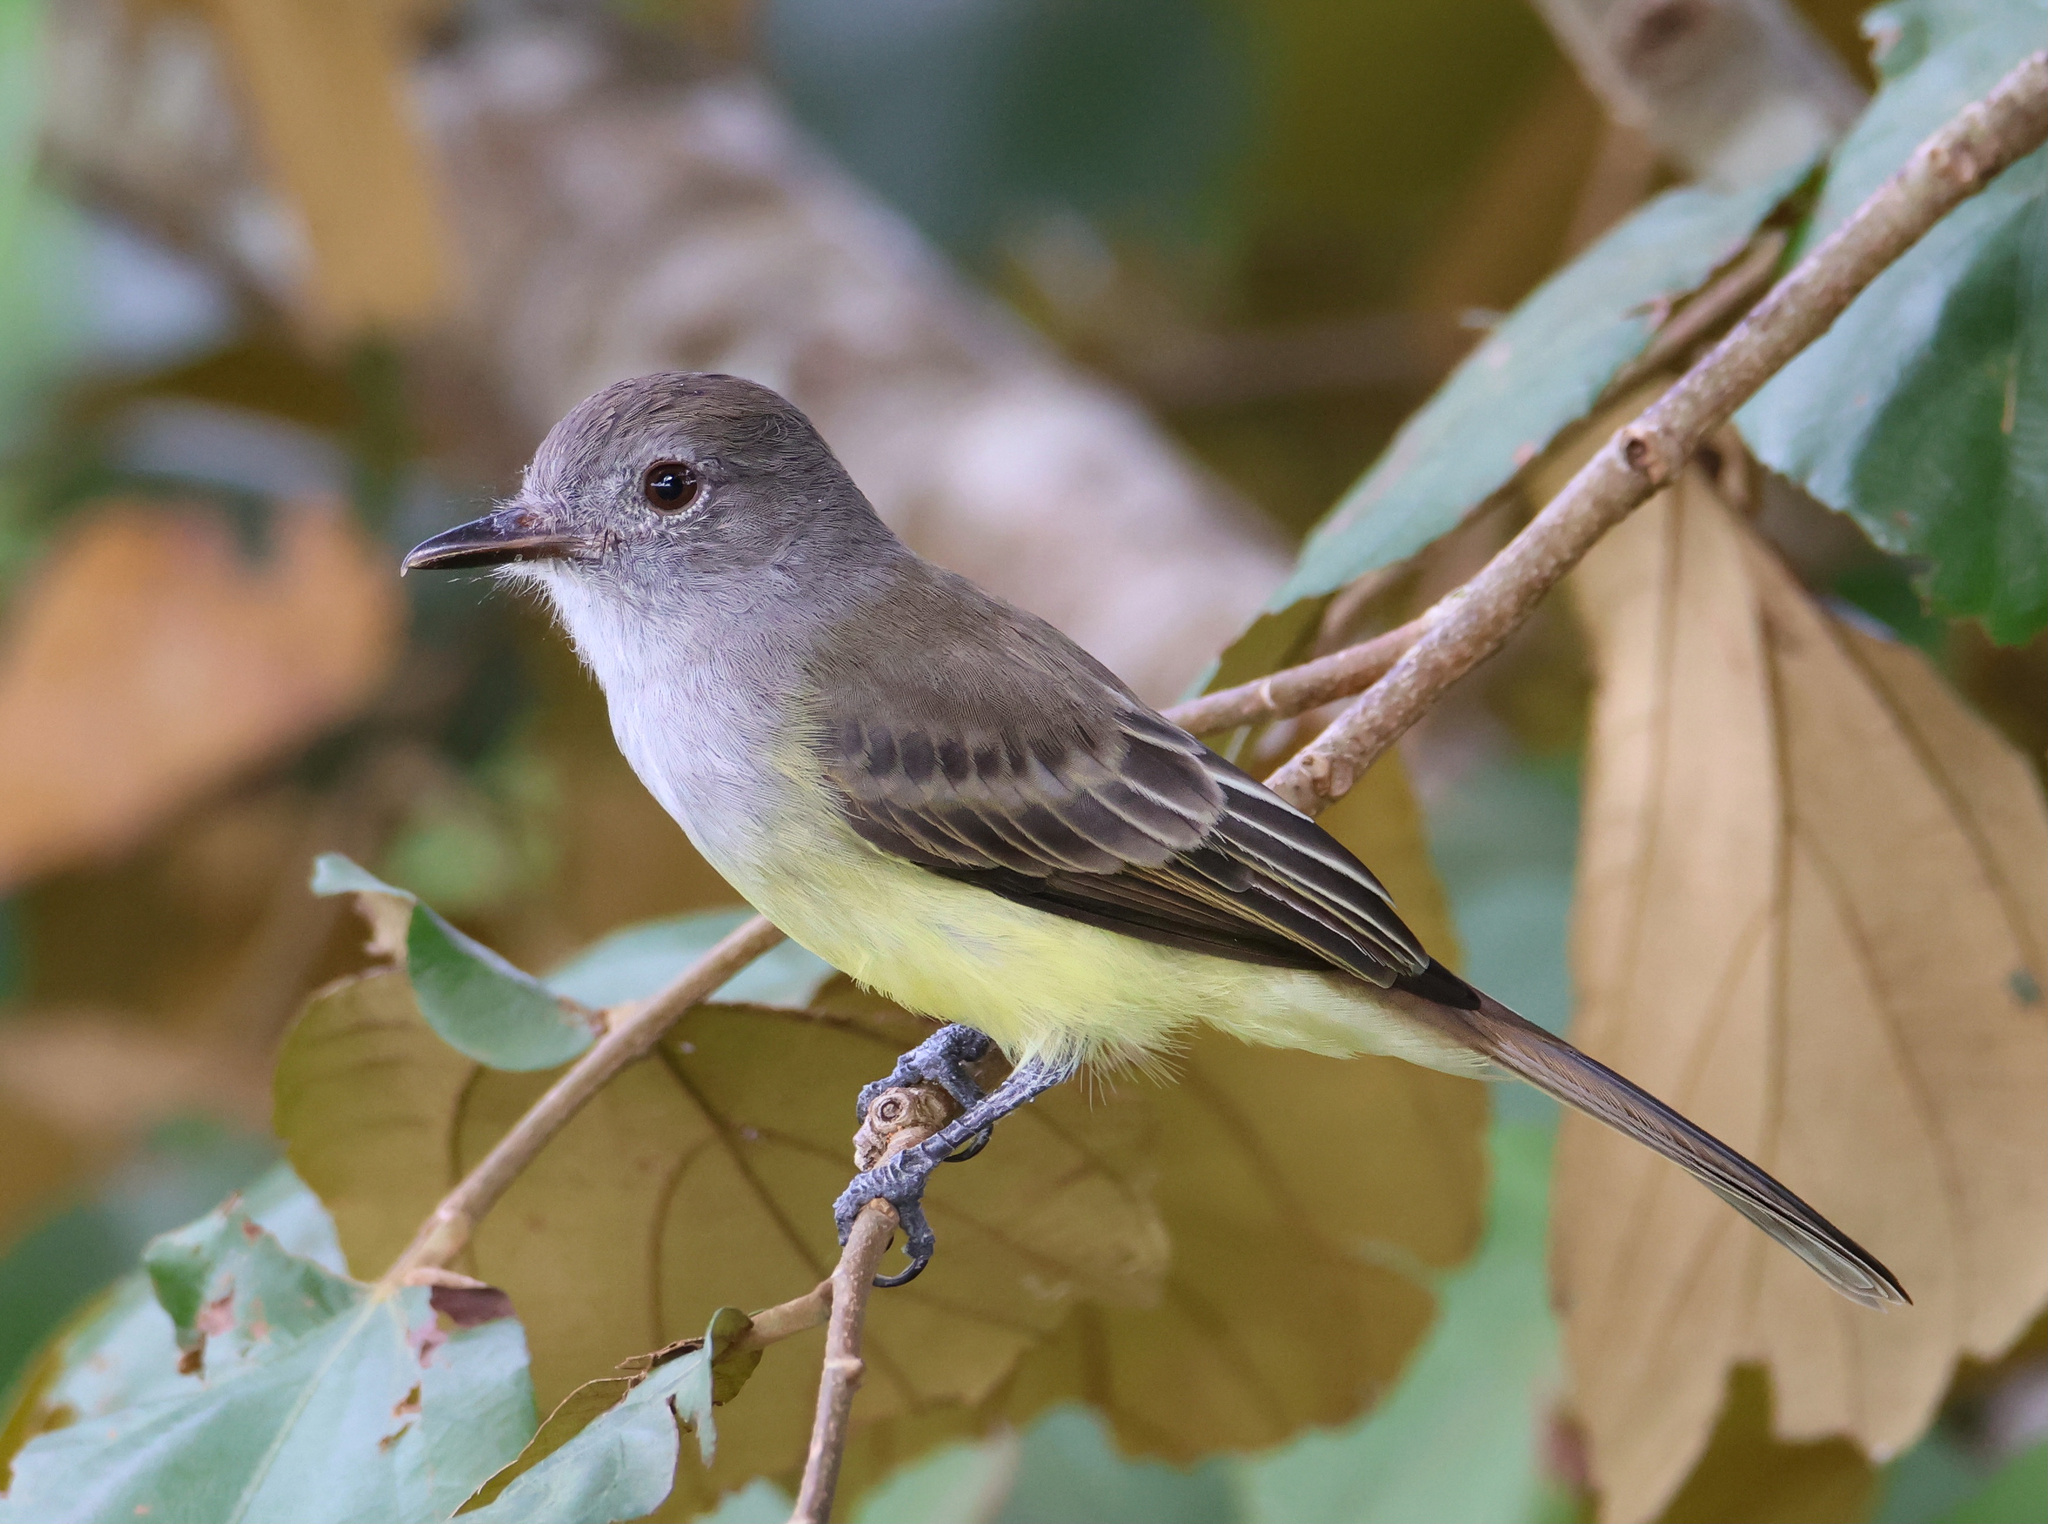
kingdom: Animalia
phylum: Chordata
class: Aves
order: Passeriformes
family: Tyrannidae
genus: Myiarchus
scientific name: Myiarchus panamensis
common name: Panama flycatcher
